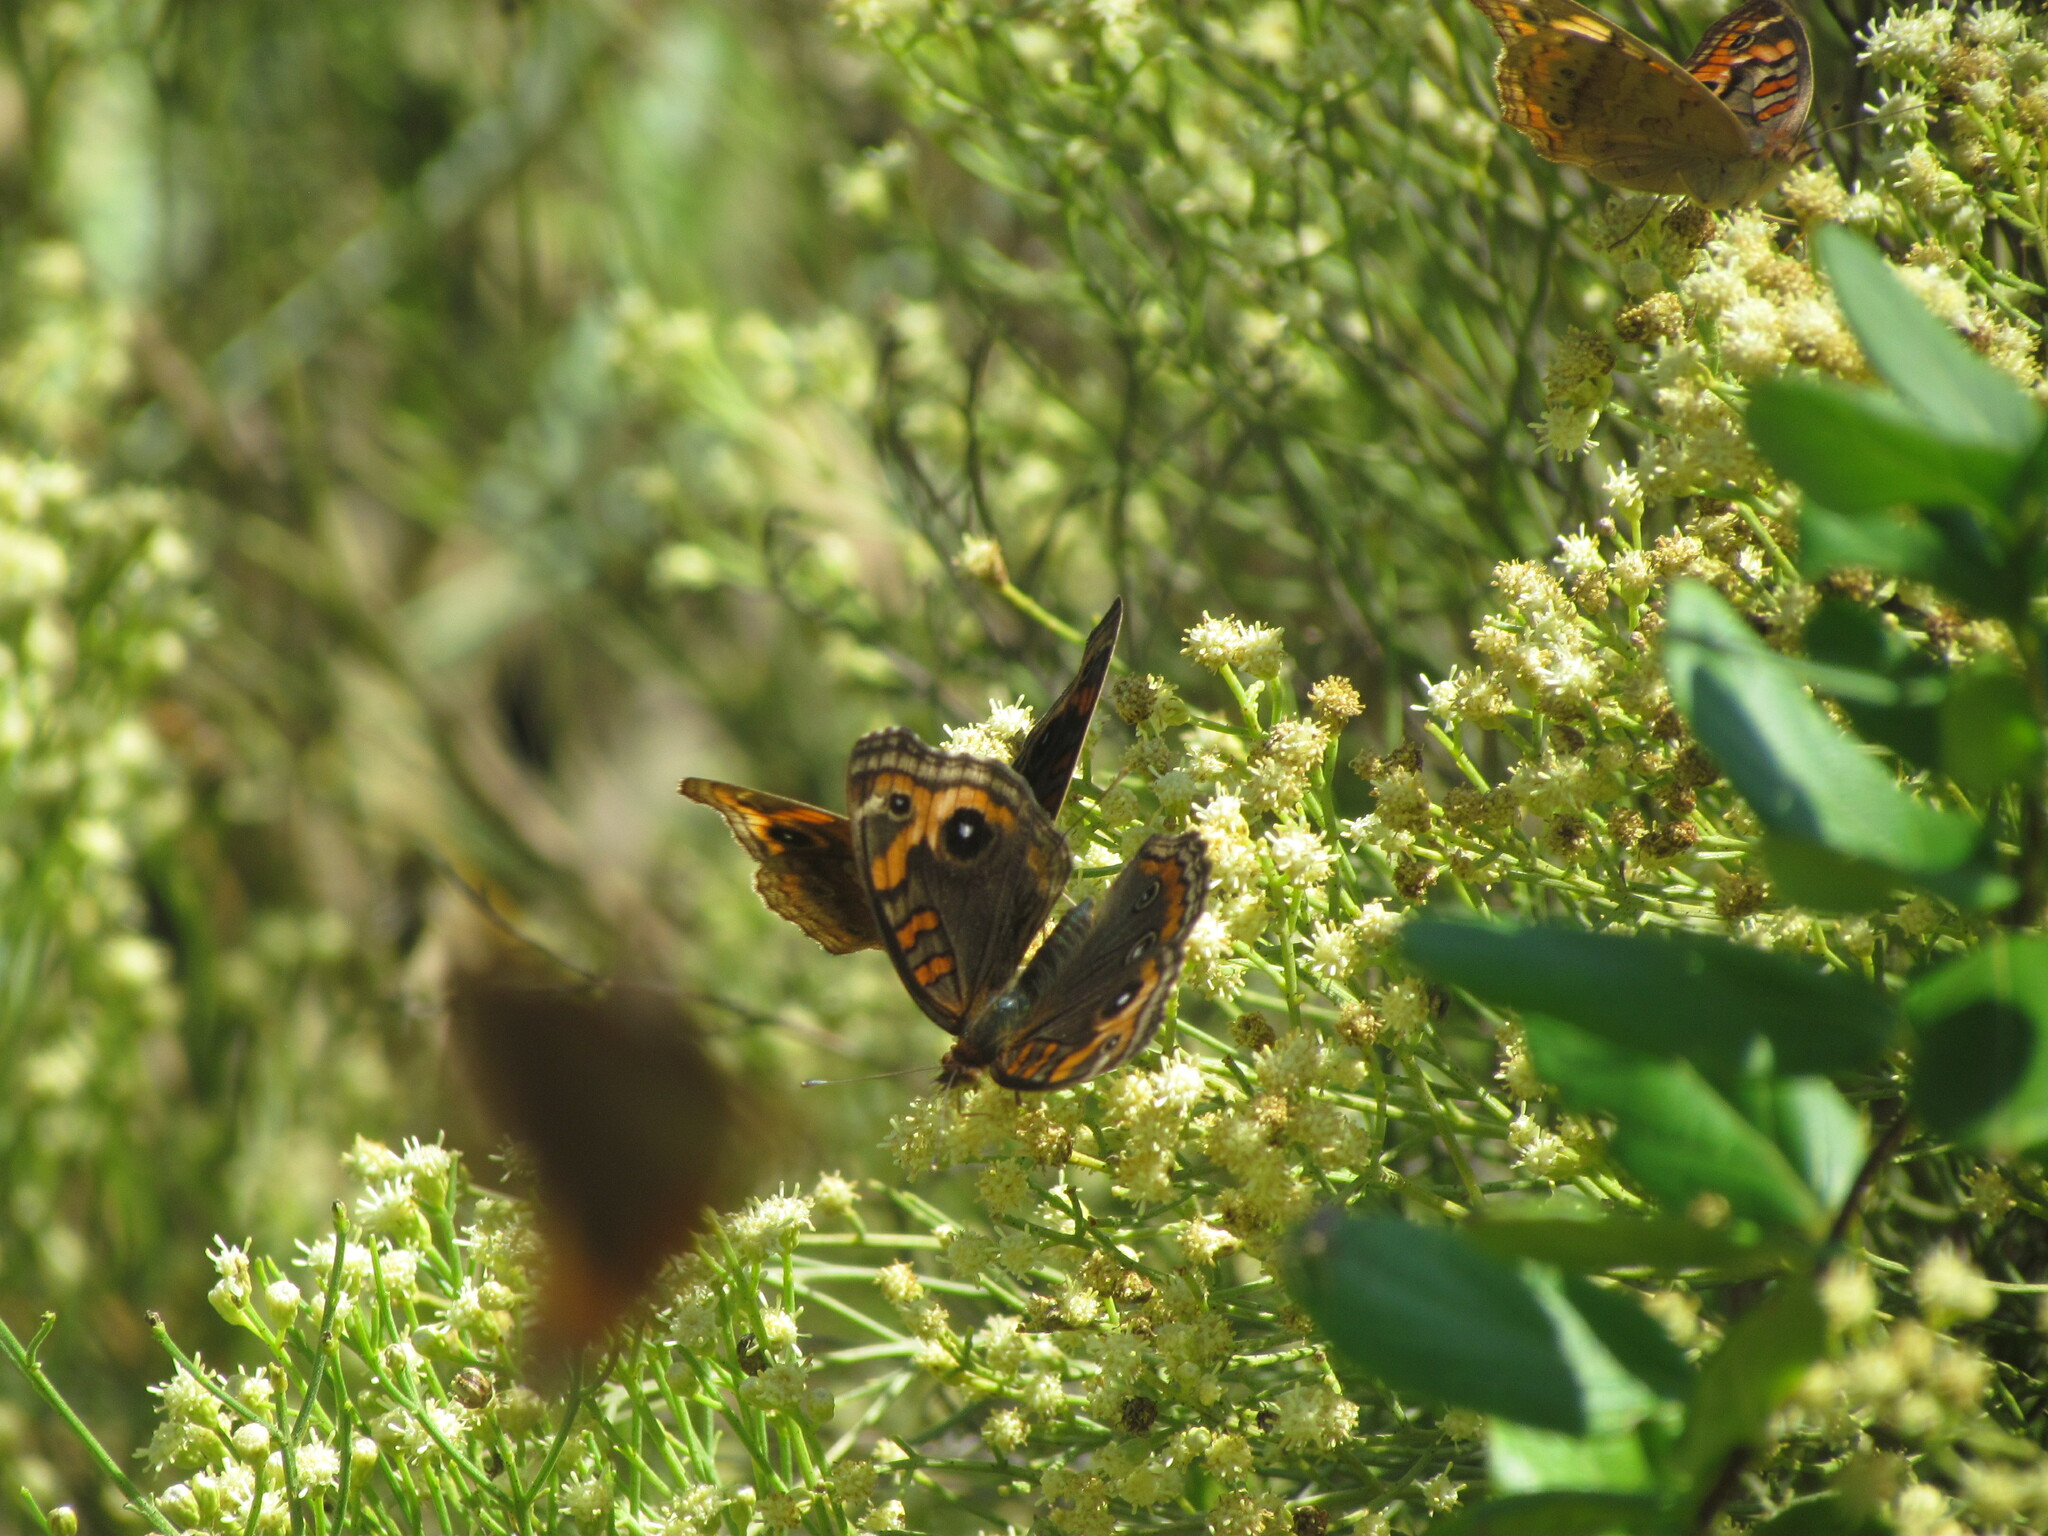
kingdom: Animalia
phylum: Arthropoda
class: Insecta
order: Lepidoptera
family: Nymphalidae
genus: Junonia
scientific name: Junonia lavinia
